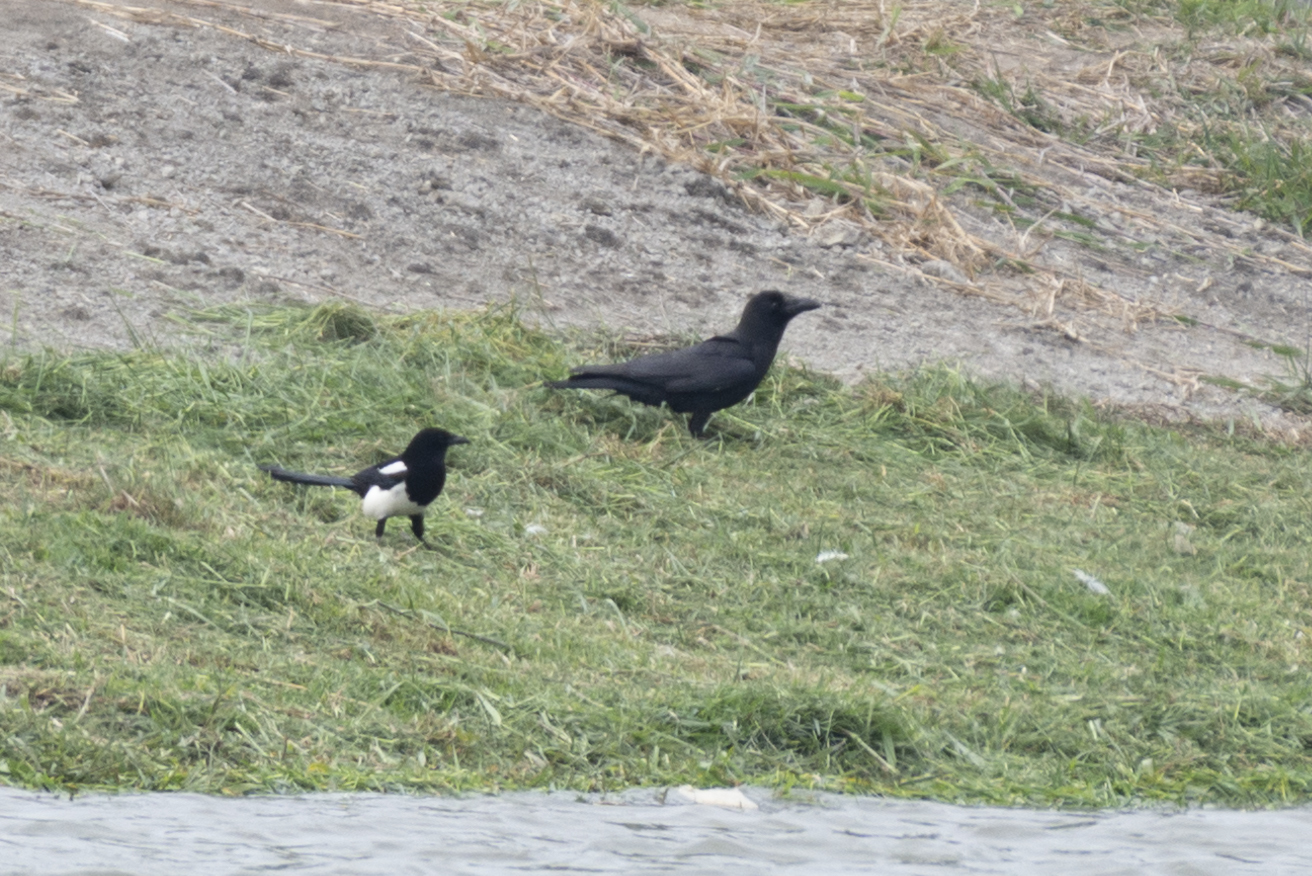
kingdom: Animalia
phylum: Chordata
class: Aves
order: Passeriformes
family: Corvidae
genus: Pica
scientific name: Pica serica
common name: Oriental magpie
